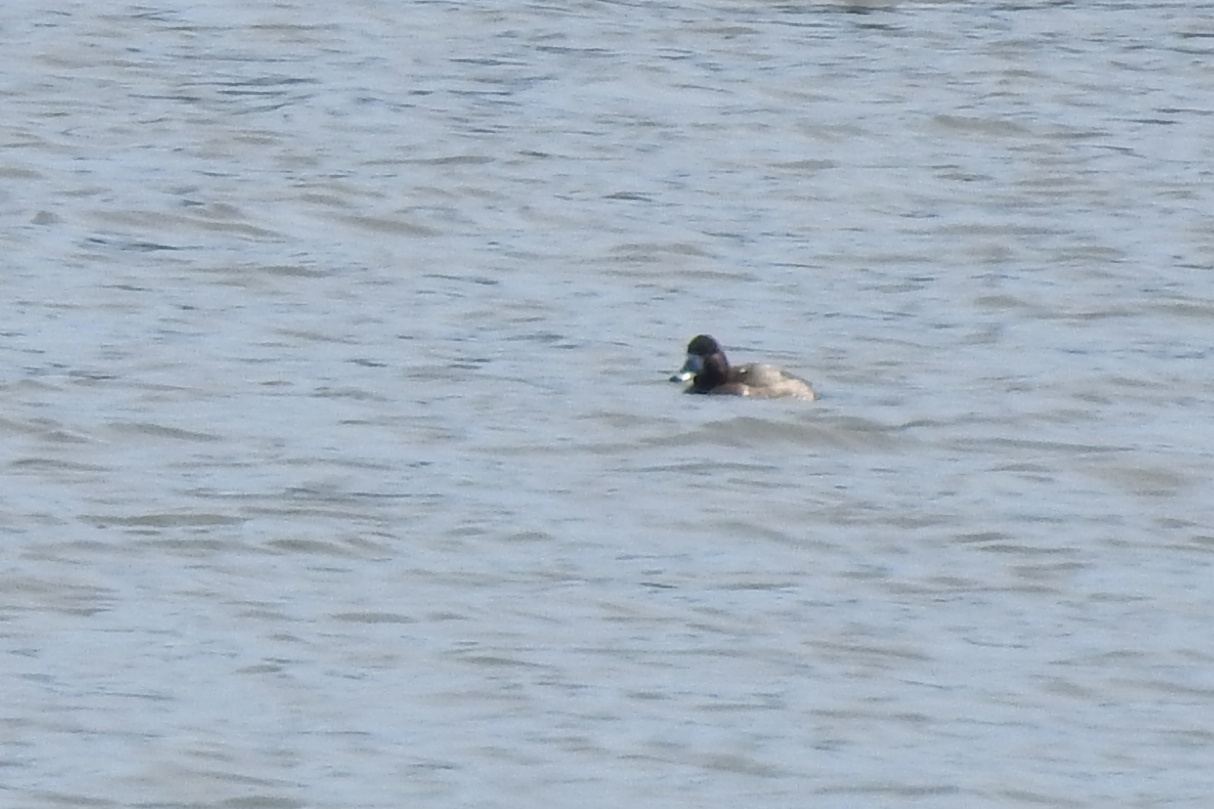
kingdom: Animalia
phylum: Chordata
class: Aves
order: Anseriformes
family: Anatidae
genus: Aythya
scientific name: Aythya marila
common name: Greater scaup
